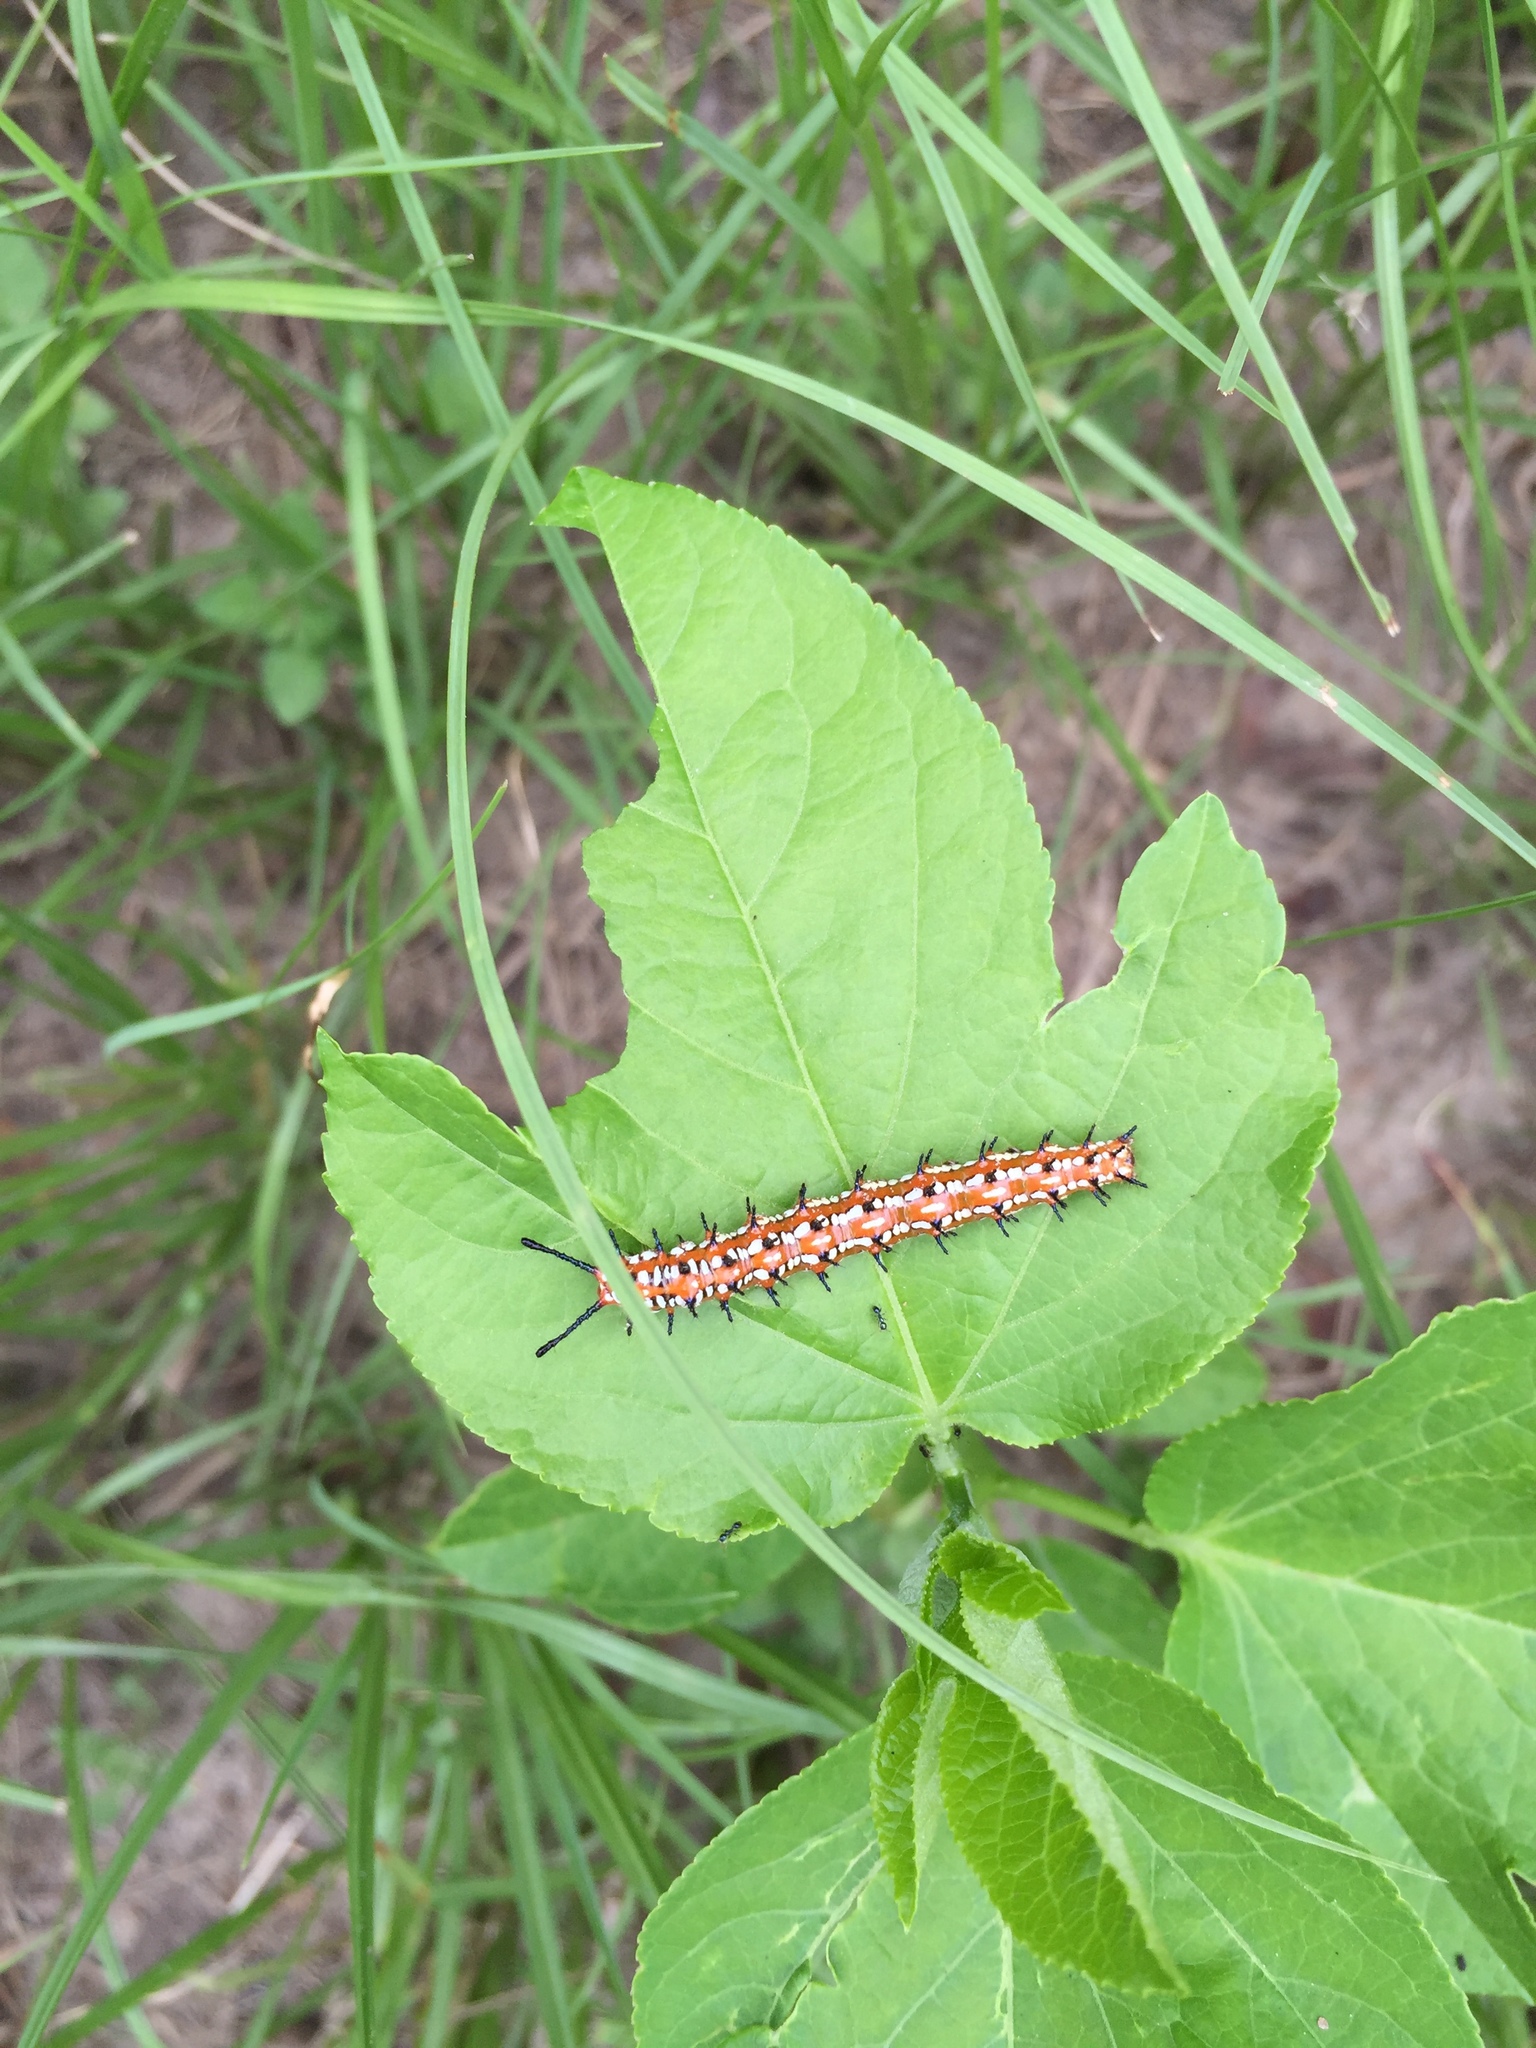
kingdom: Animalia
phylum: Arthropoda
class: Insecta
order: Lepidoptera
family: Nymphalidae
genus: Euptoieta
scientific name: Euptoieta claudia
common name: Variegated fritillary
